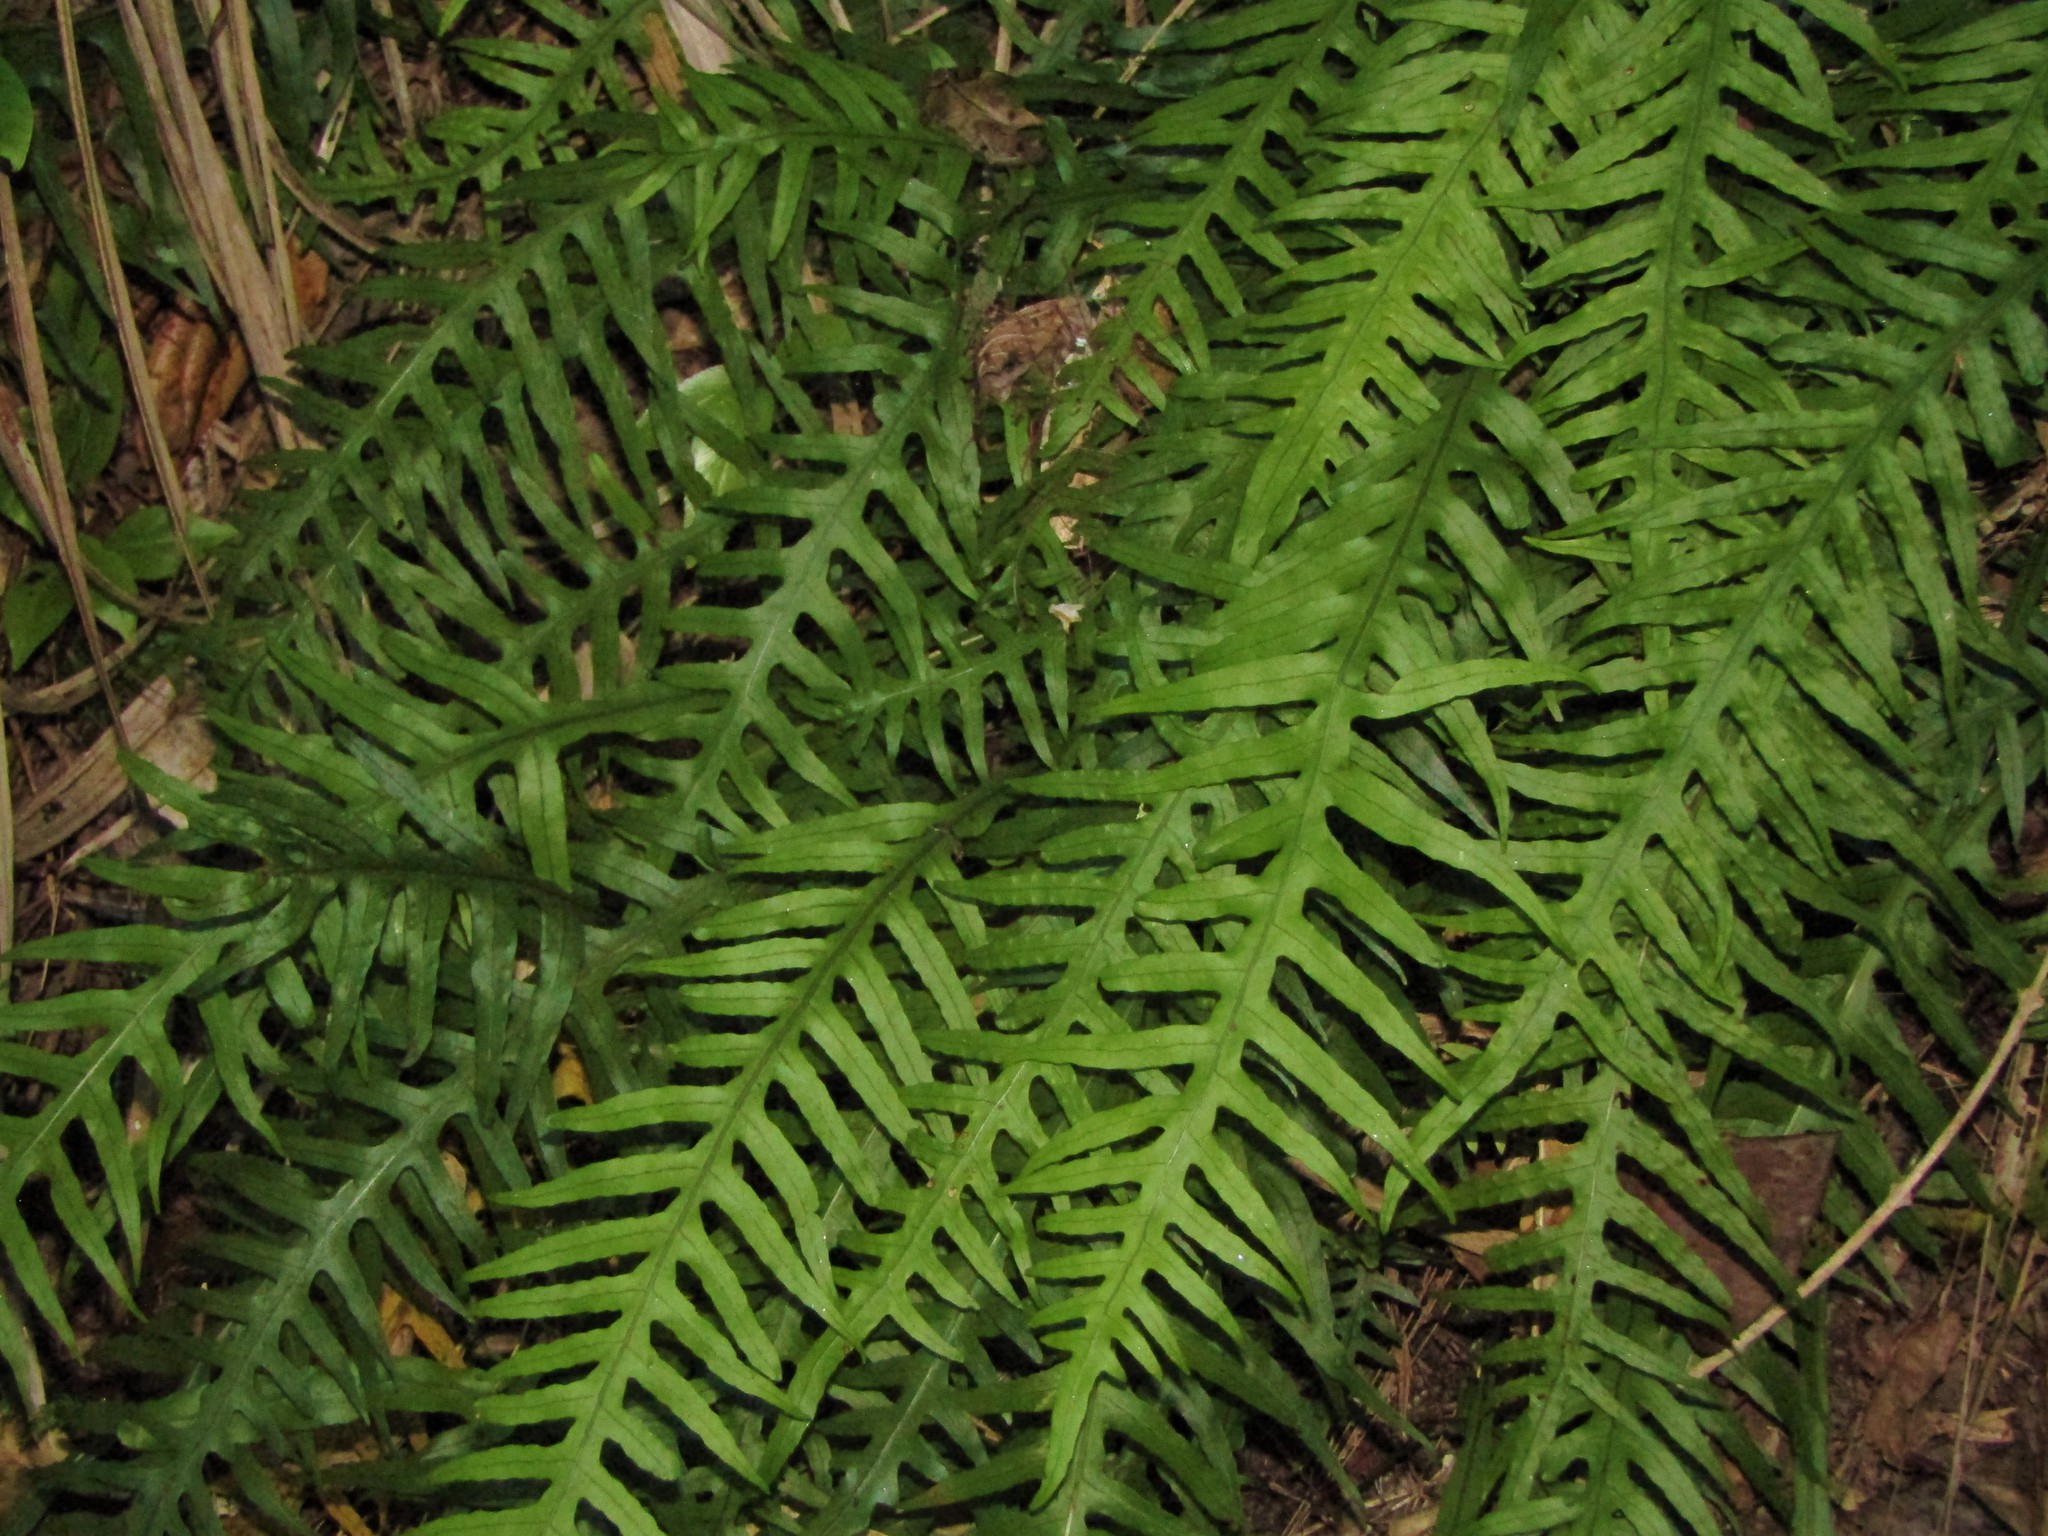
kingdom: Plantae
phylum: Tracheophyta
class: Polypodiopsida
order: Polypodiales
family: Polypodiaceae
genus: Lecanopteris
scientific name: Lecanopteris scandens
